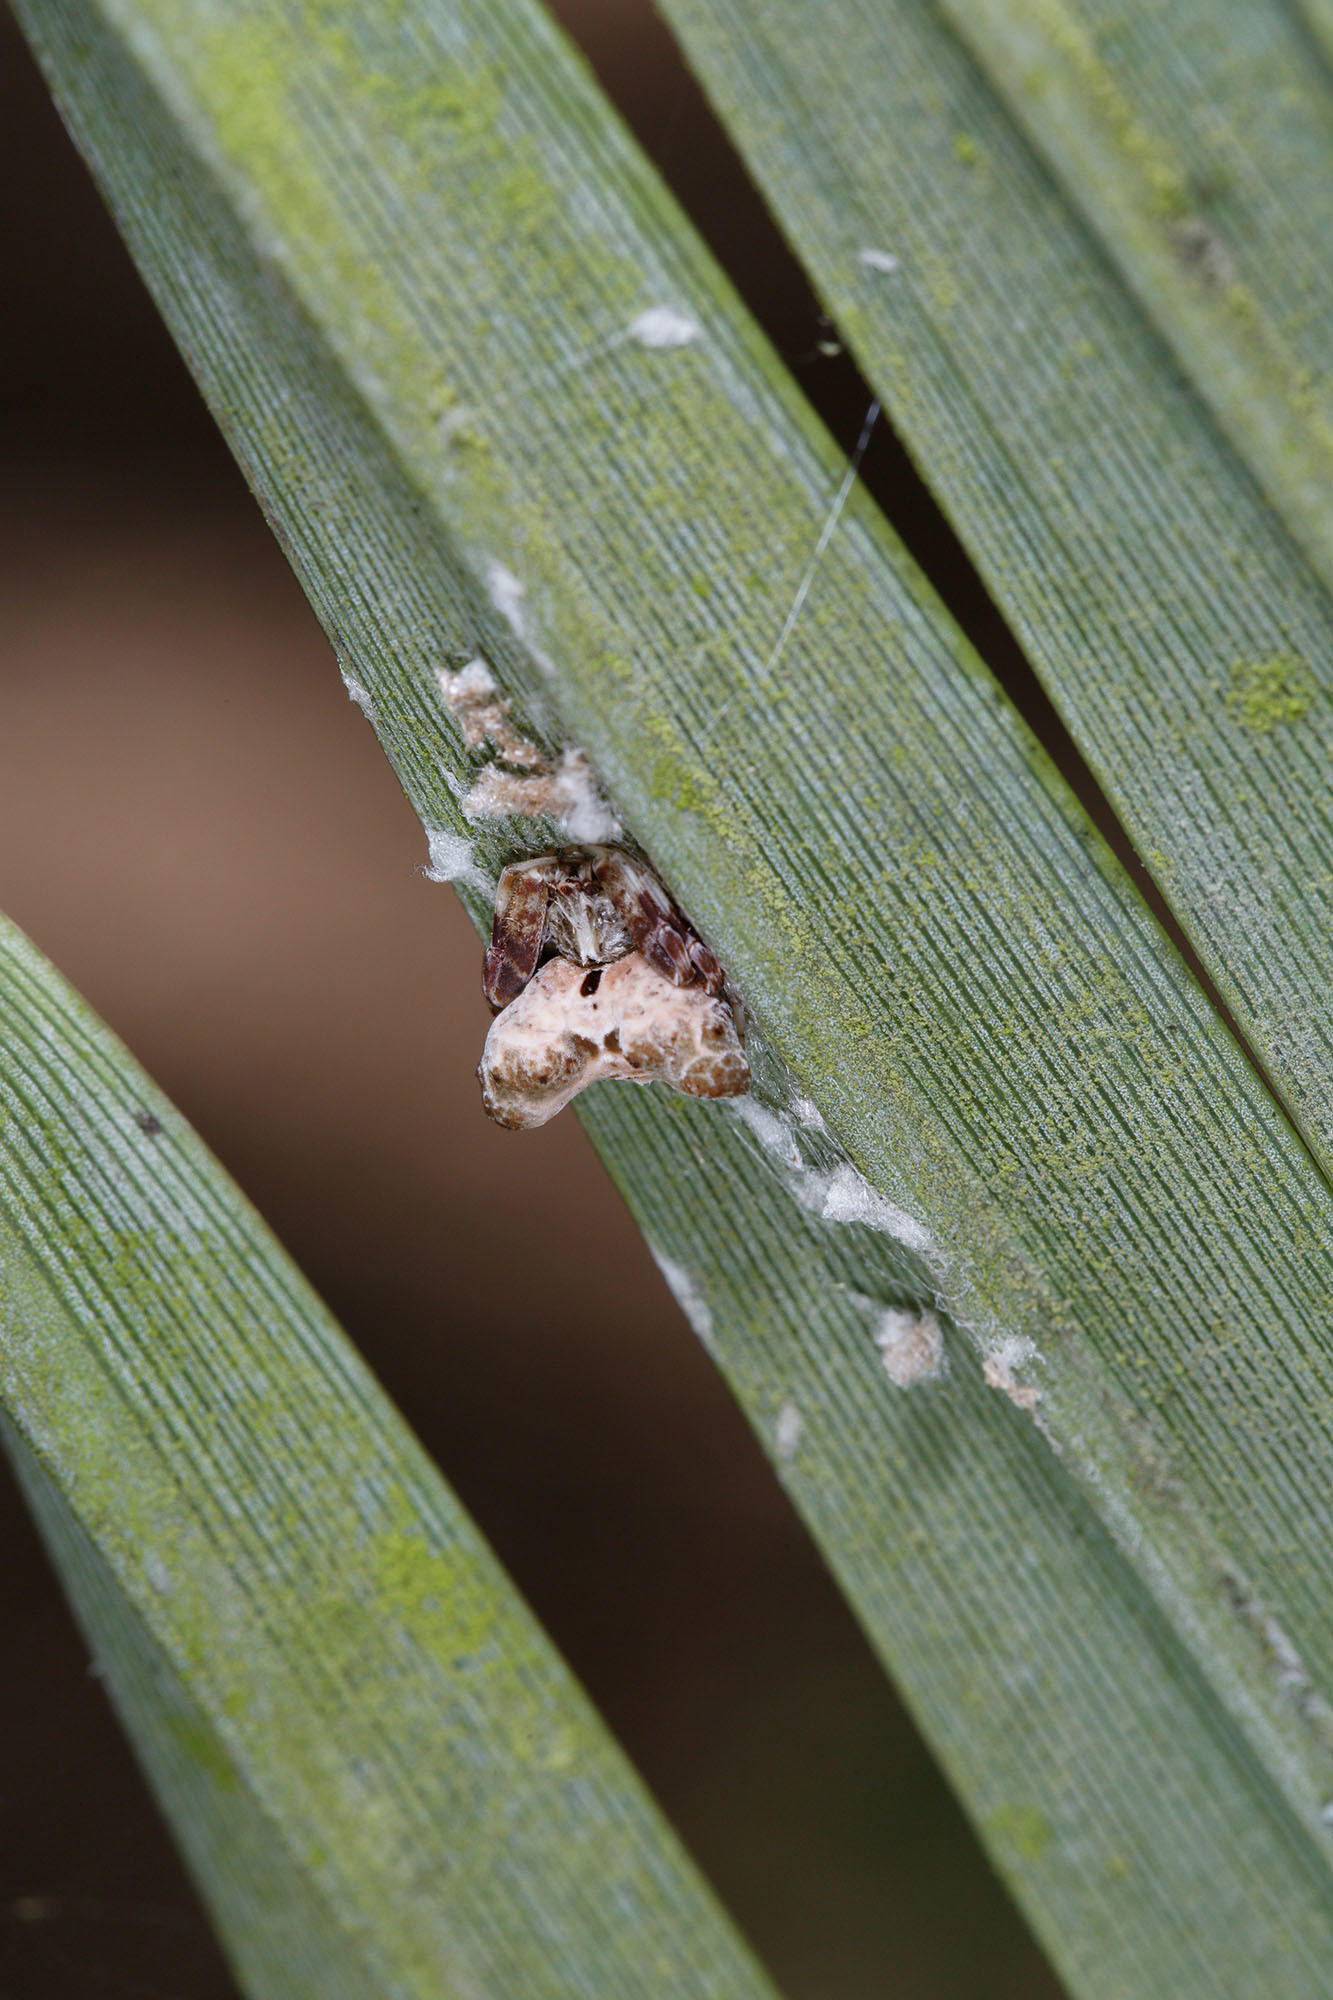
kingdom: Animalia
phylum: Arthropoda
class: Arachnida
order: Araneae
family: Araneidae
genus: Celaenia
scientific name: Celaenia olivacea
